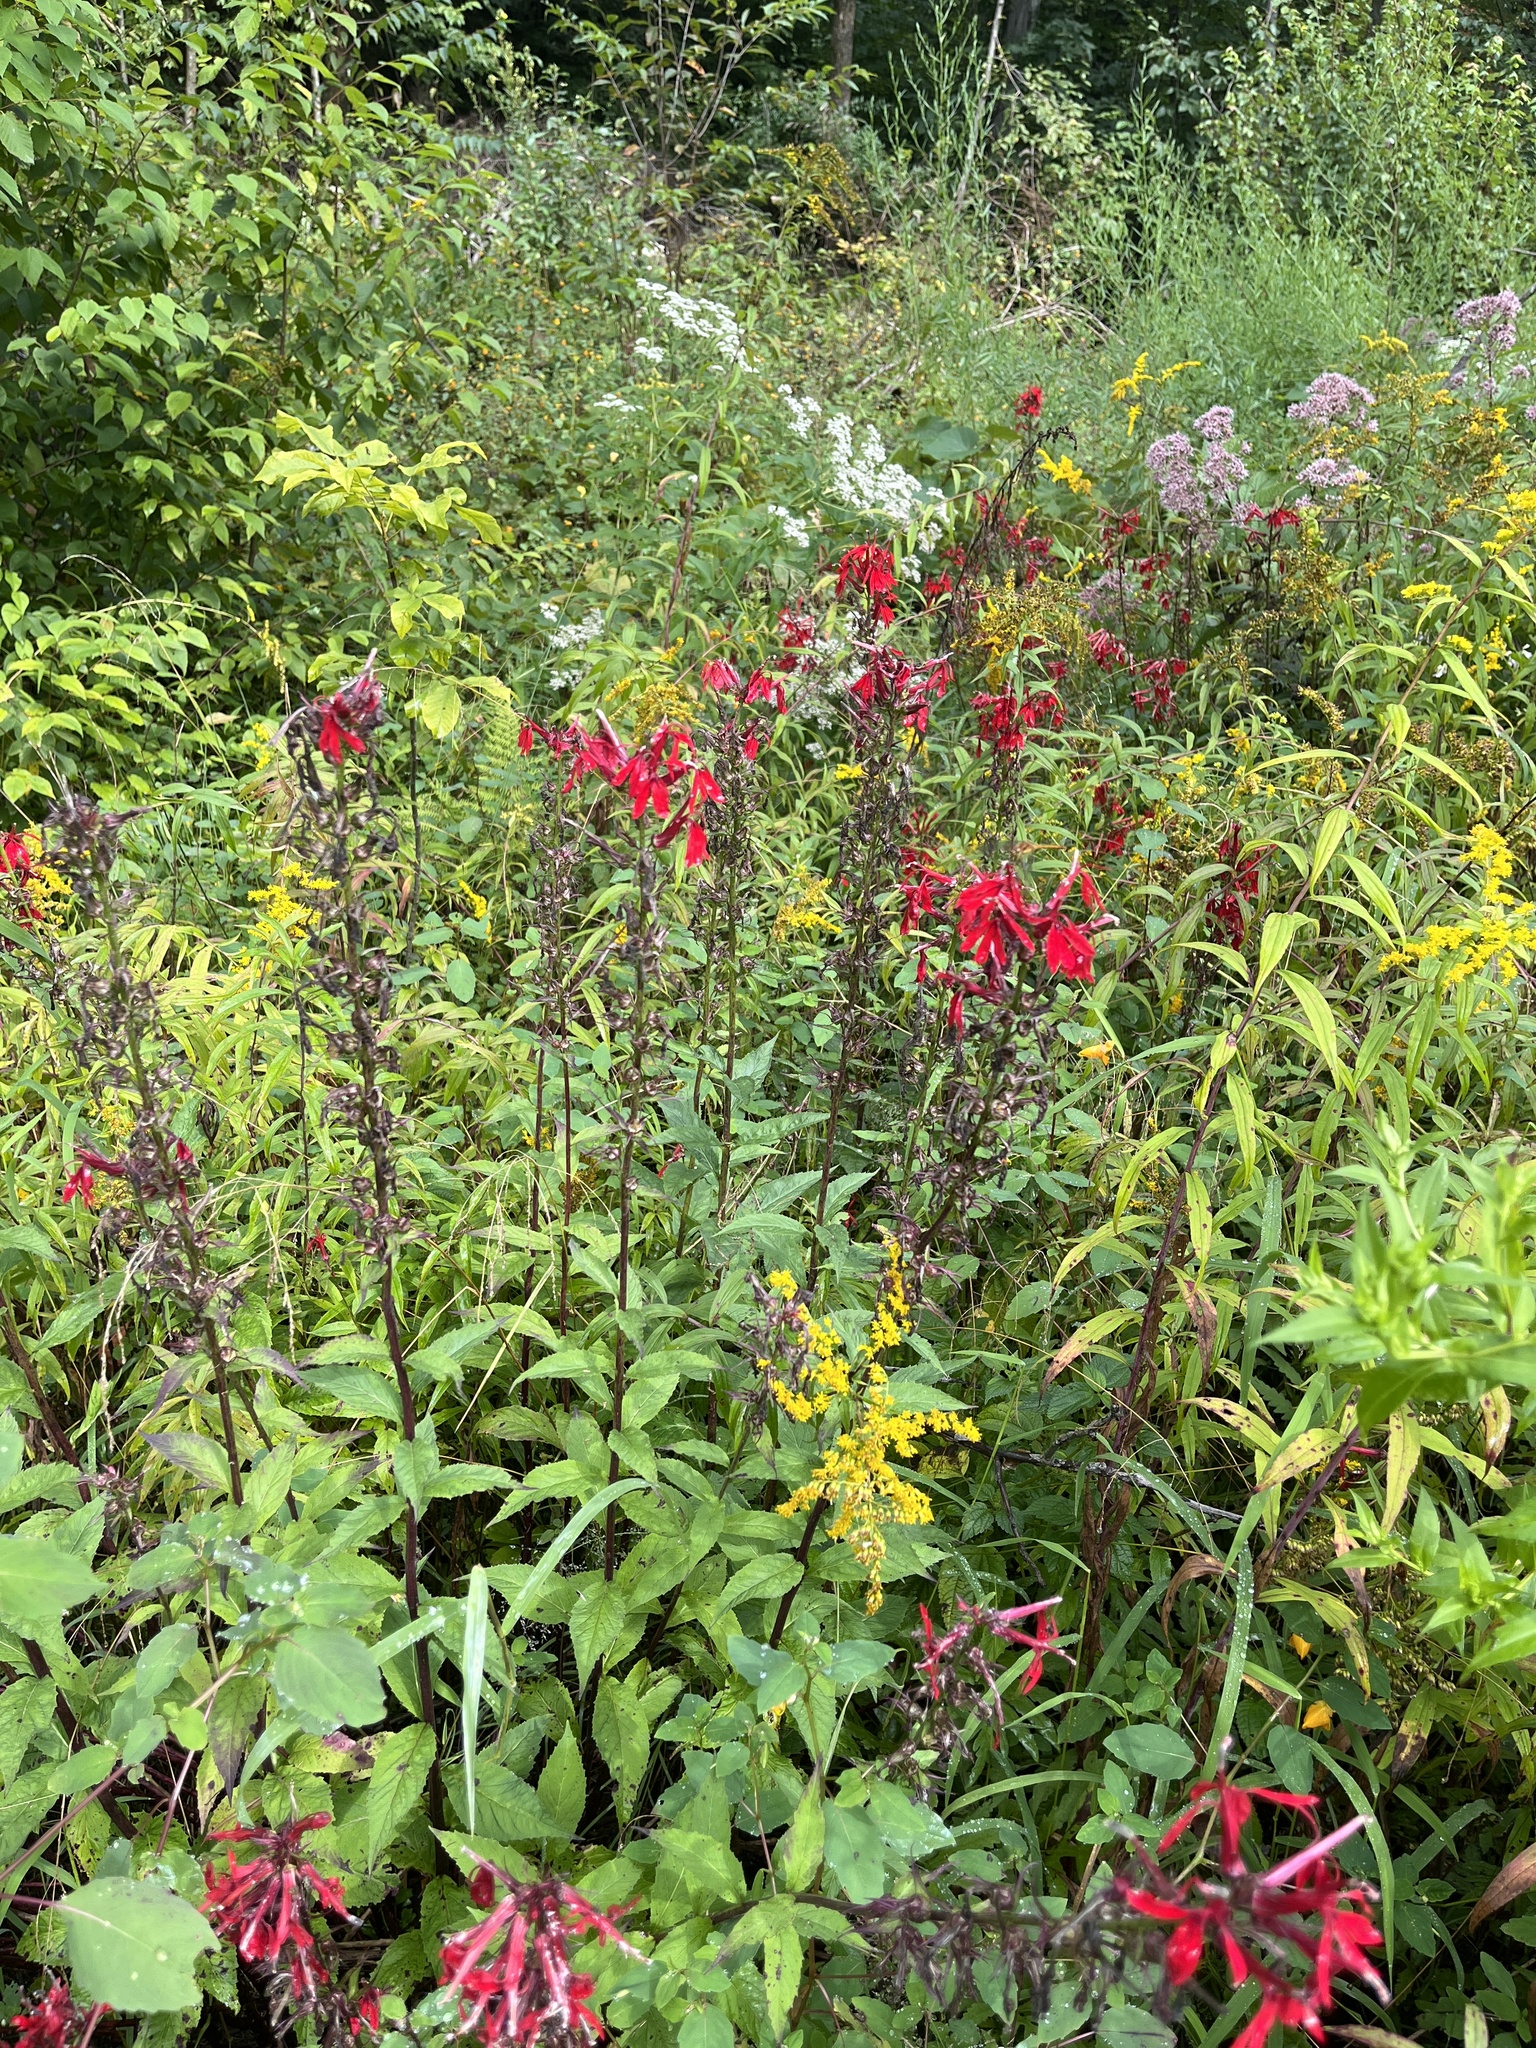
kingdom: Plantae
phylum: Tracheophyta
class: Magnoliopsida
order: Asterales
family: Campanulaceae
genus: Lobelia
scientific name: Lobelia cardinalis
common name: Cardinal flower
